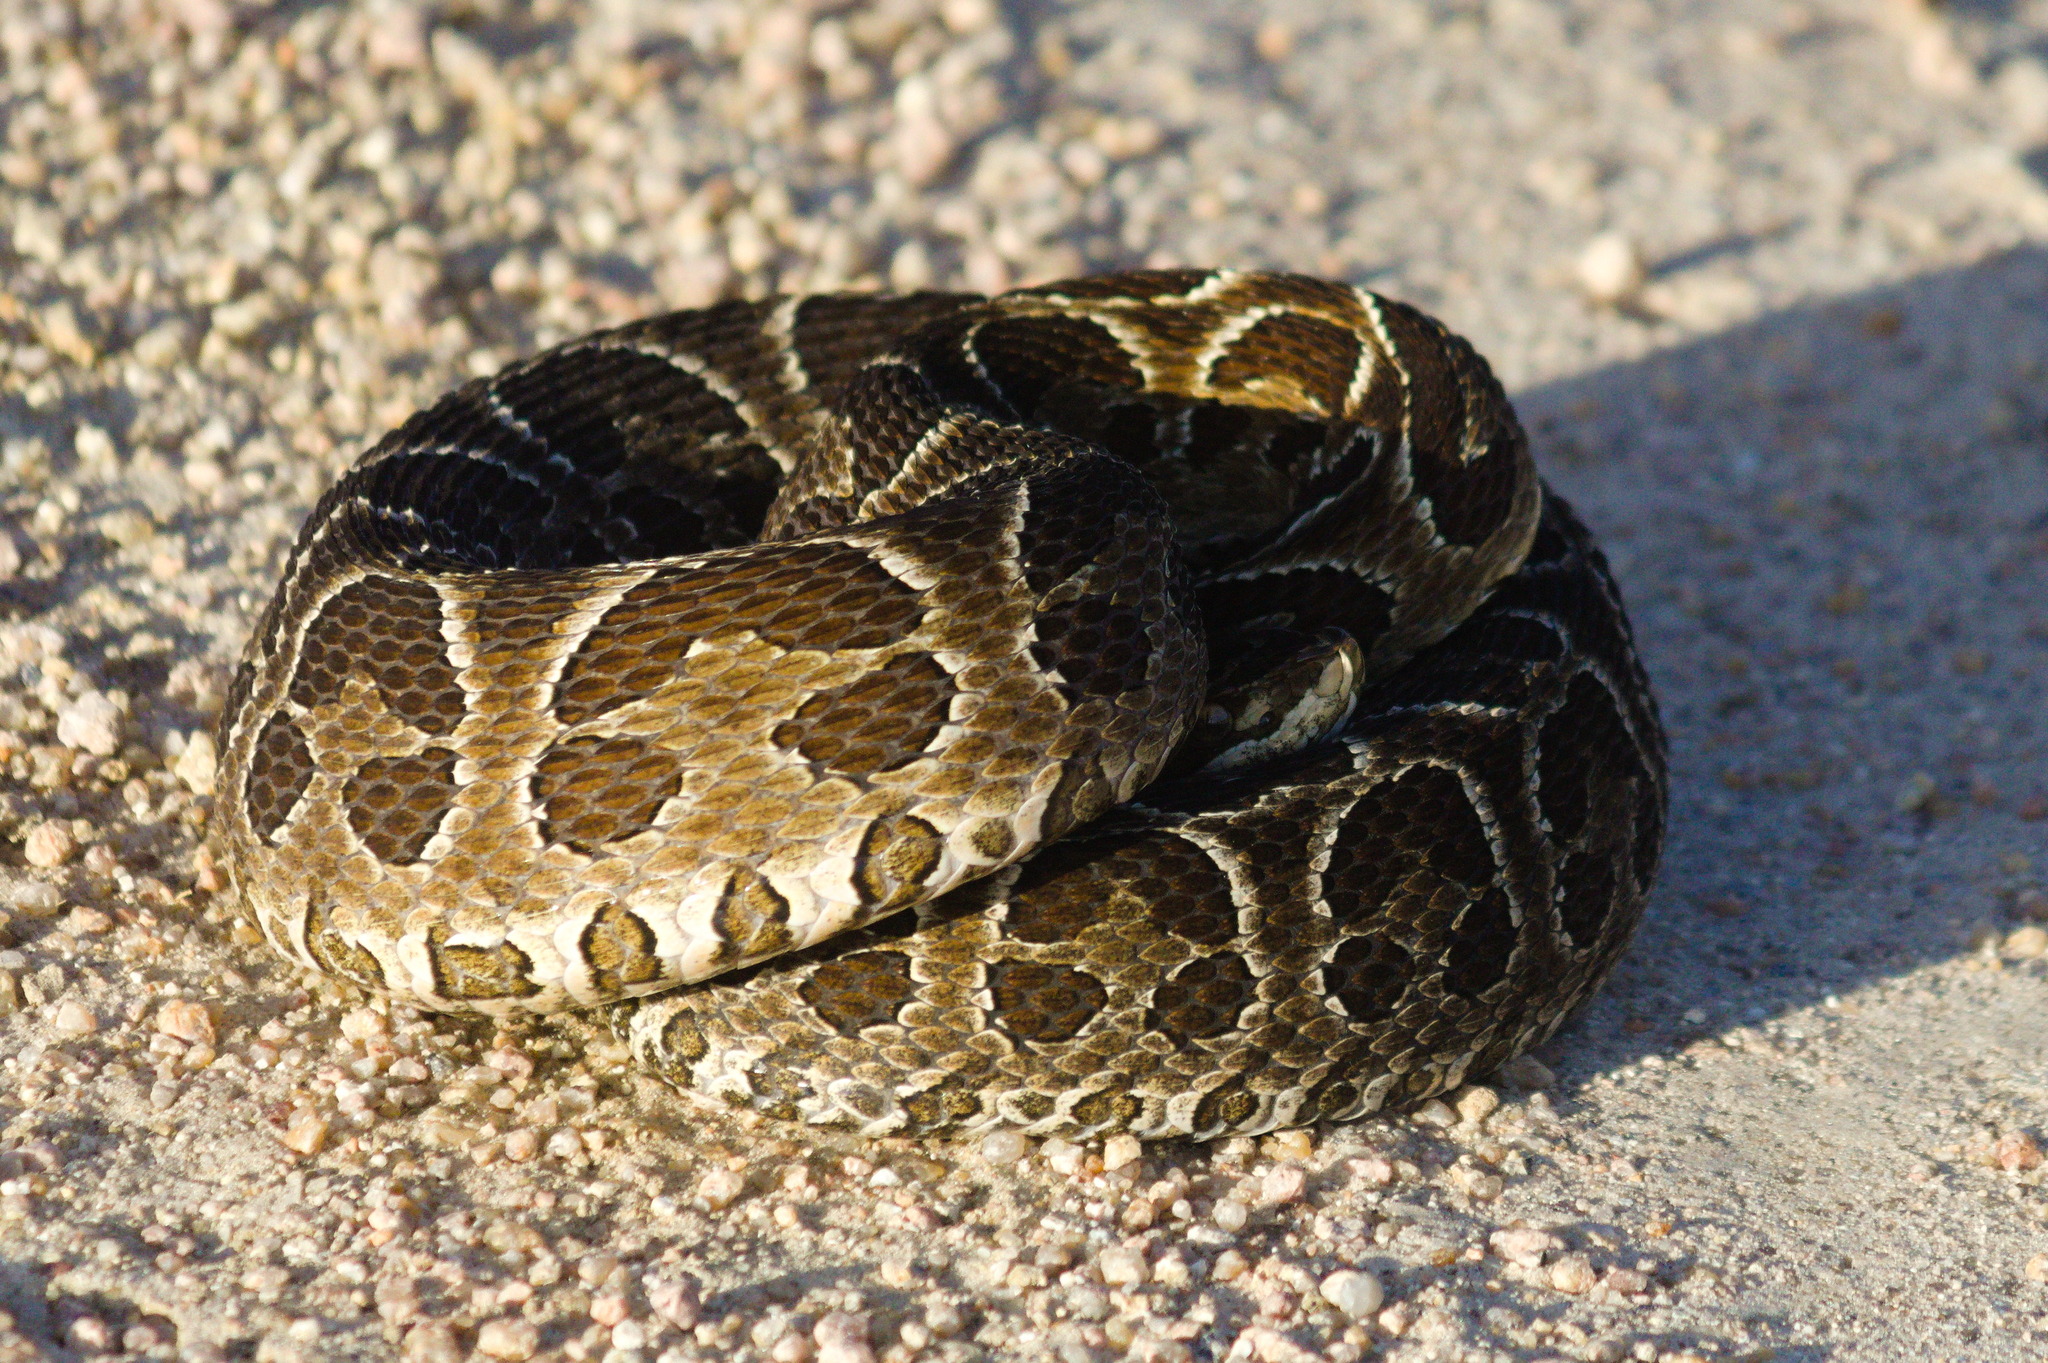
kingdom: Animalia
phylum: Chordata
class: Squamata
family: Viperidae
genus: Bothrops
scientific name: Bothrops alternatus
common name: Urutu
